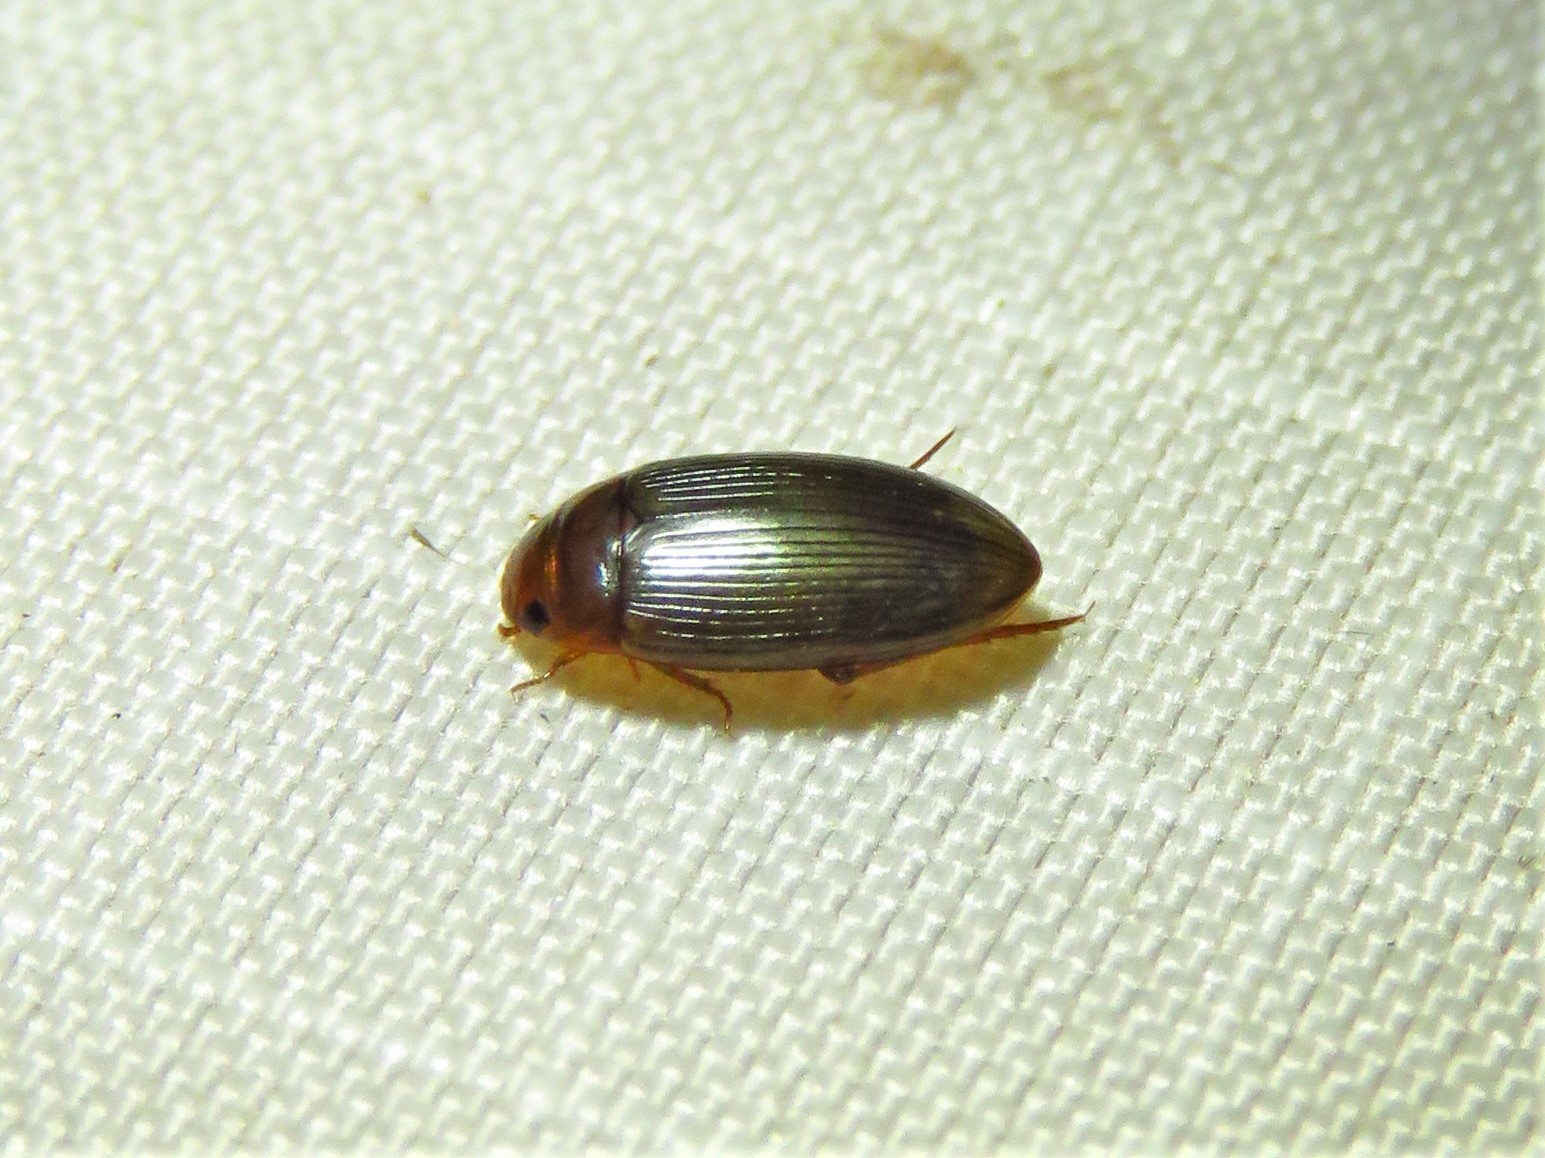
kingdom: Animalia
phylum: Arthropoda
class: Insecta
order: Coleoptera
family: Dytiscidae
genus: Copelatus
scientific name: Copelatus glyphicus
